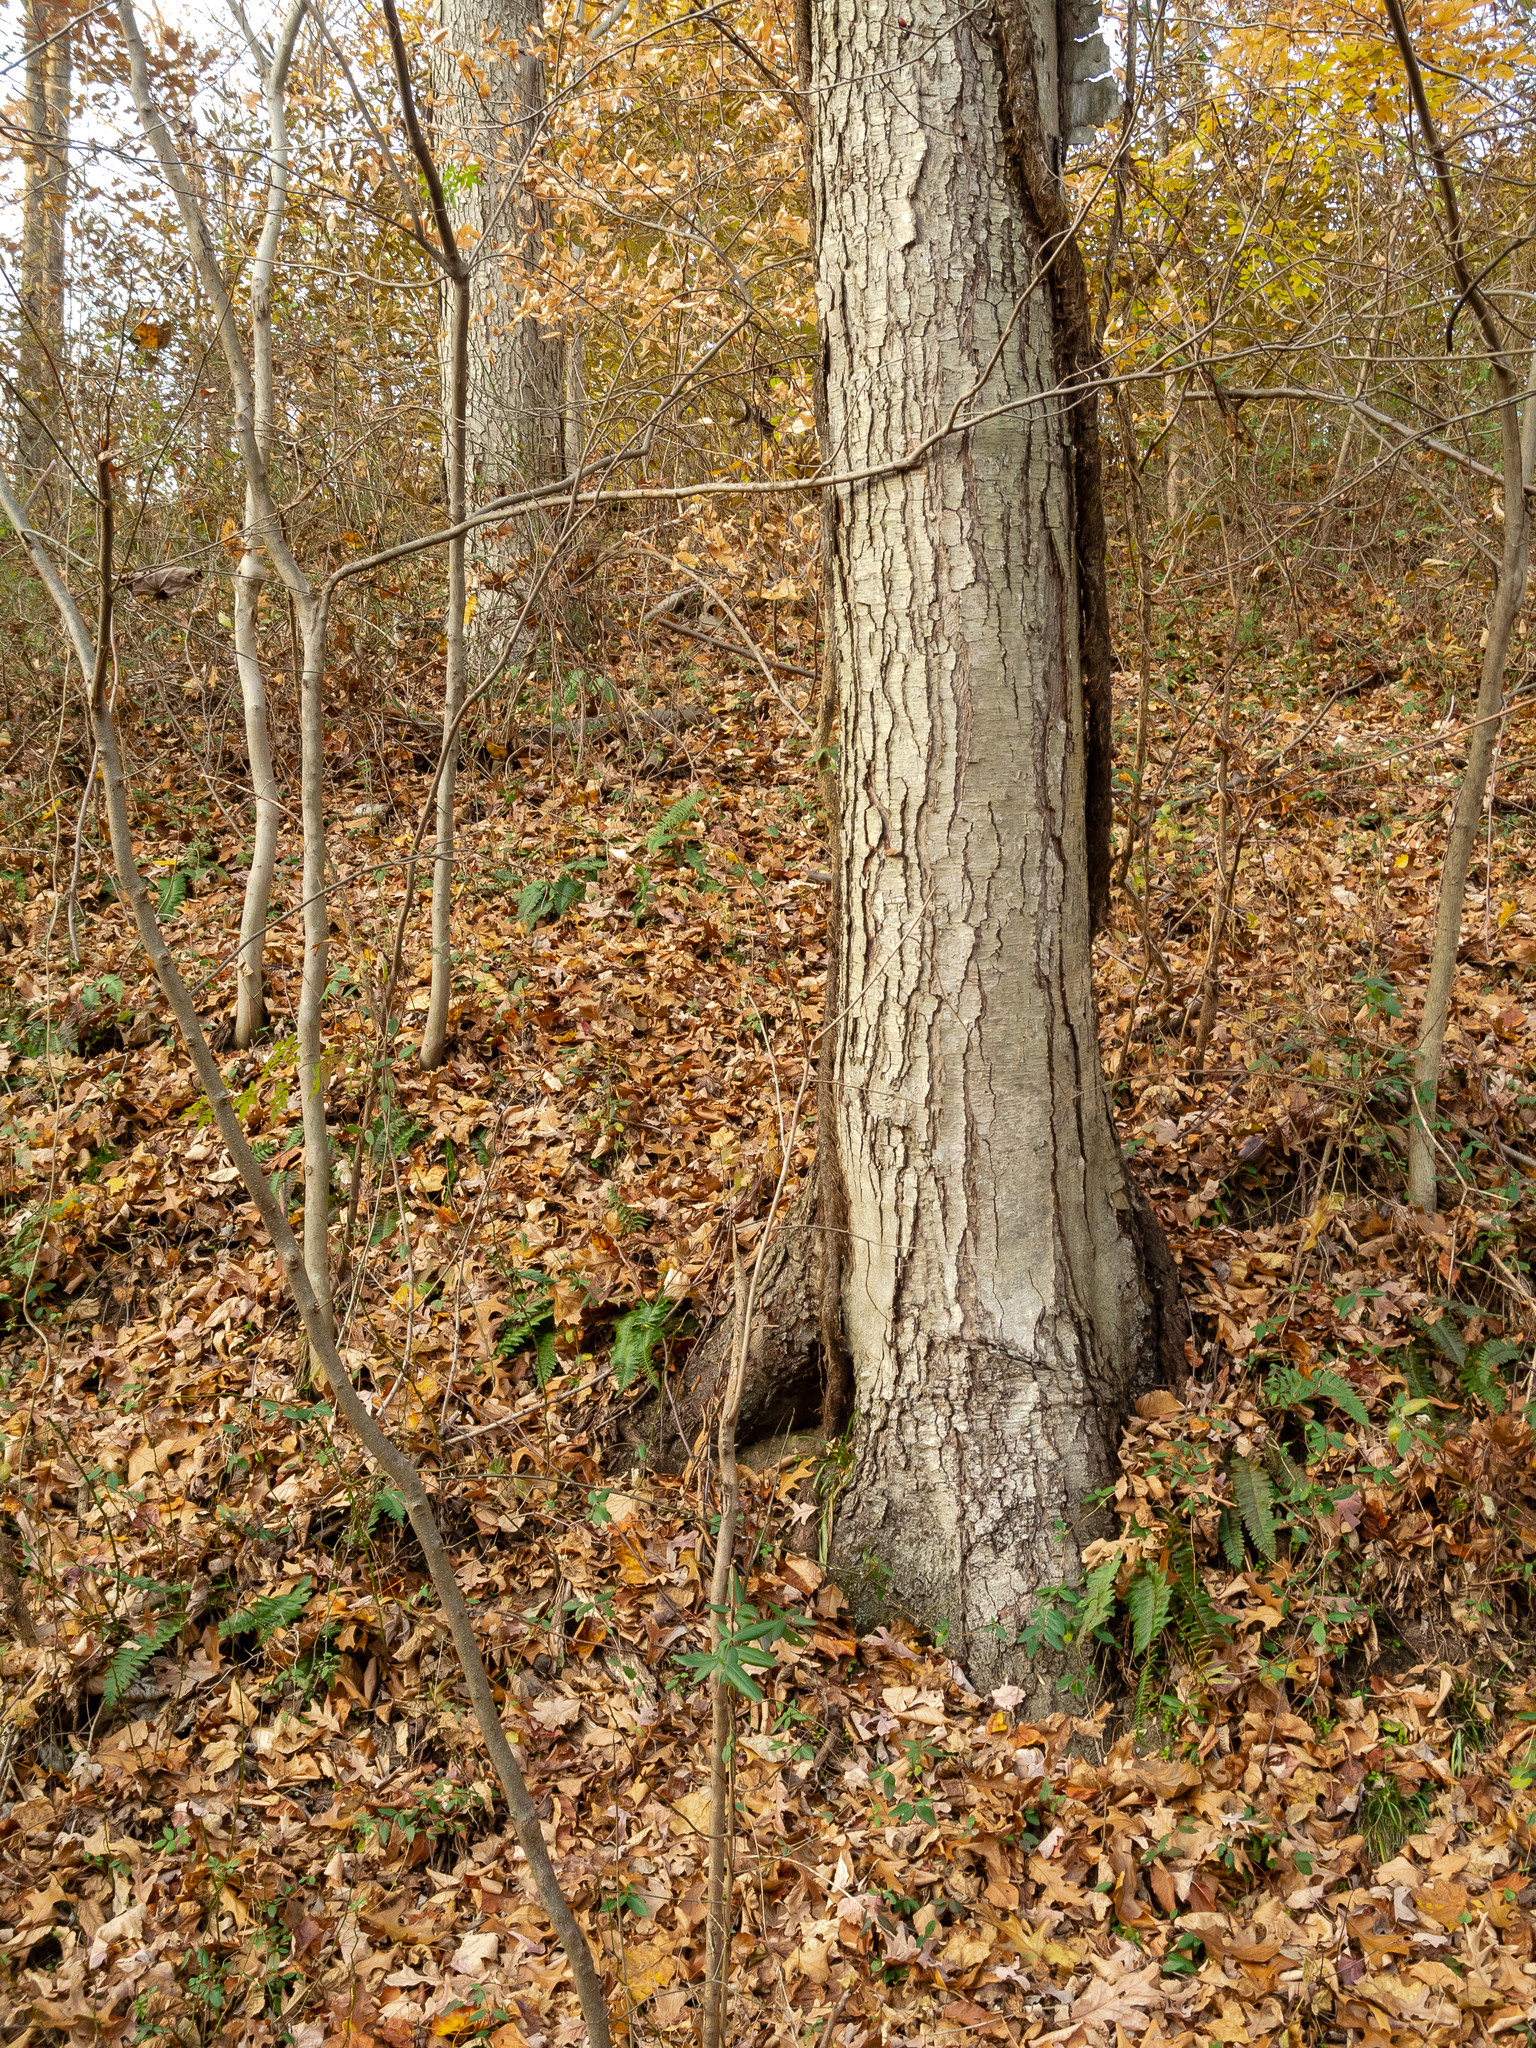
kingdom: Plantae
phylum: Tracheophyta
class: Magnoliopsida
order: Fagales
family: Betulaceae
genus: Betula
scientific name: Betula lenta
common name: Black birch
